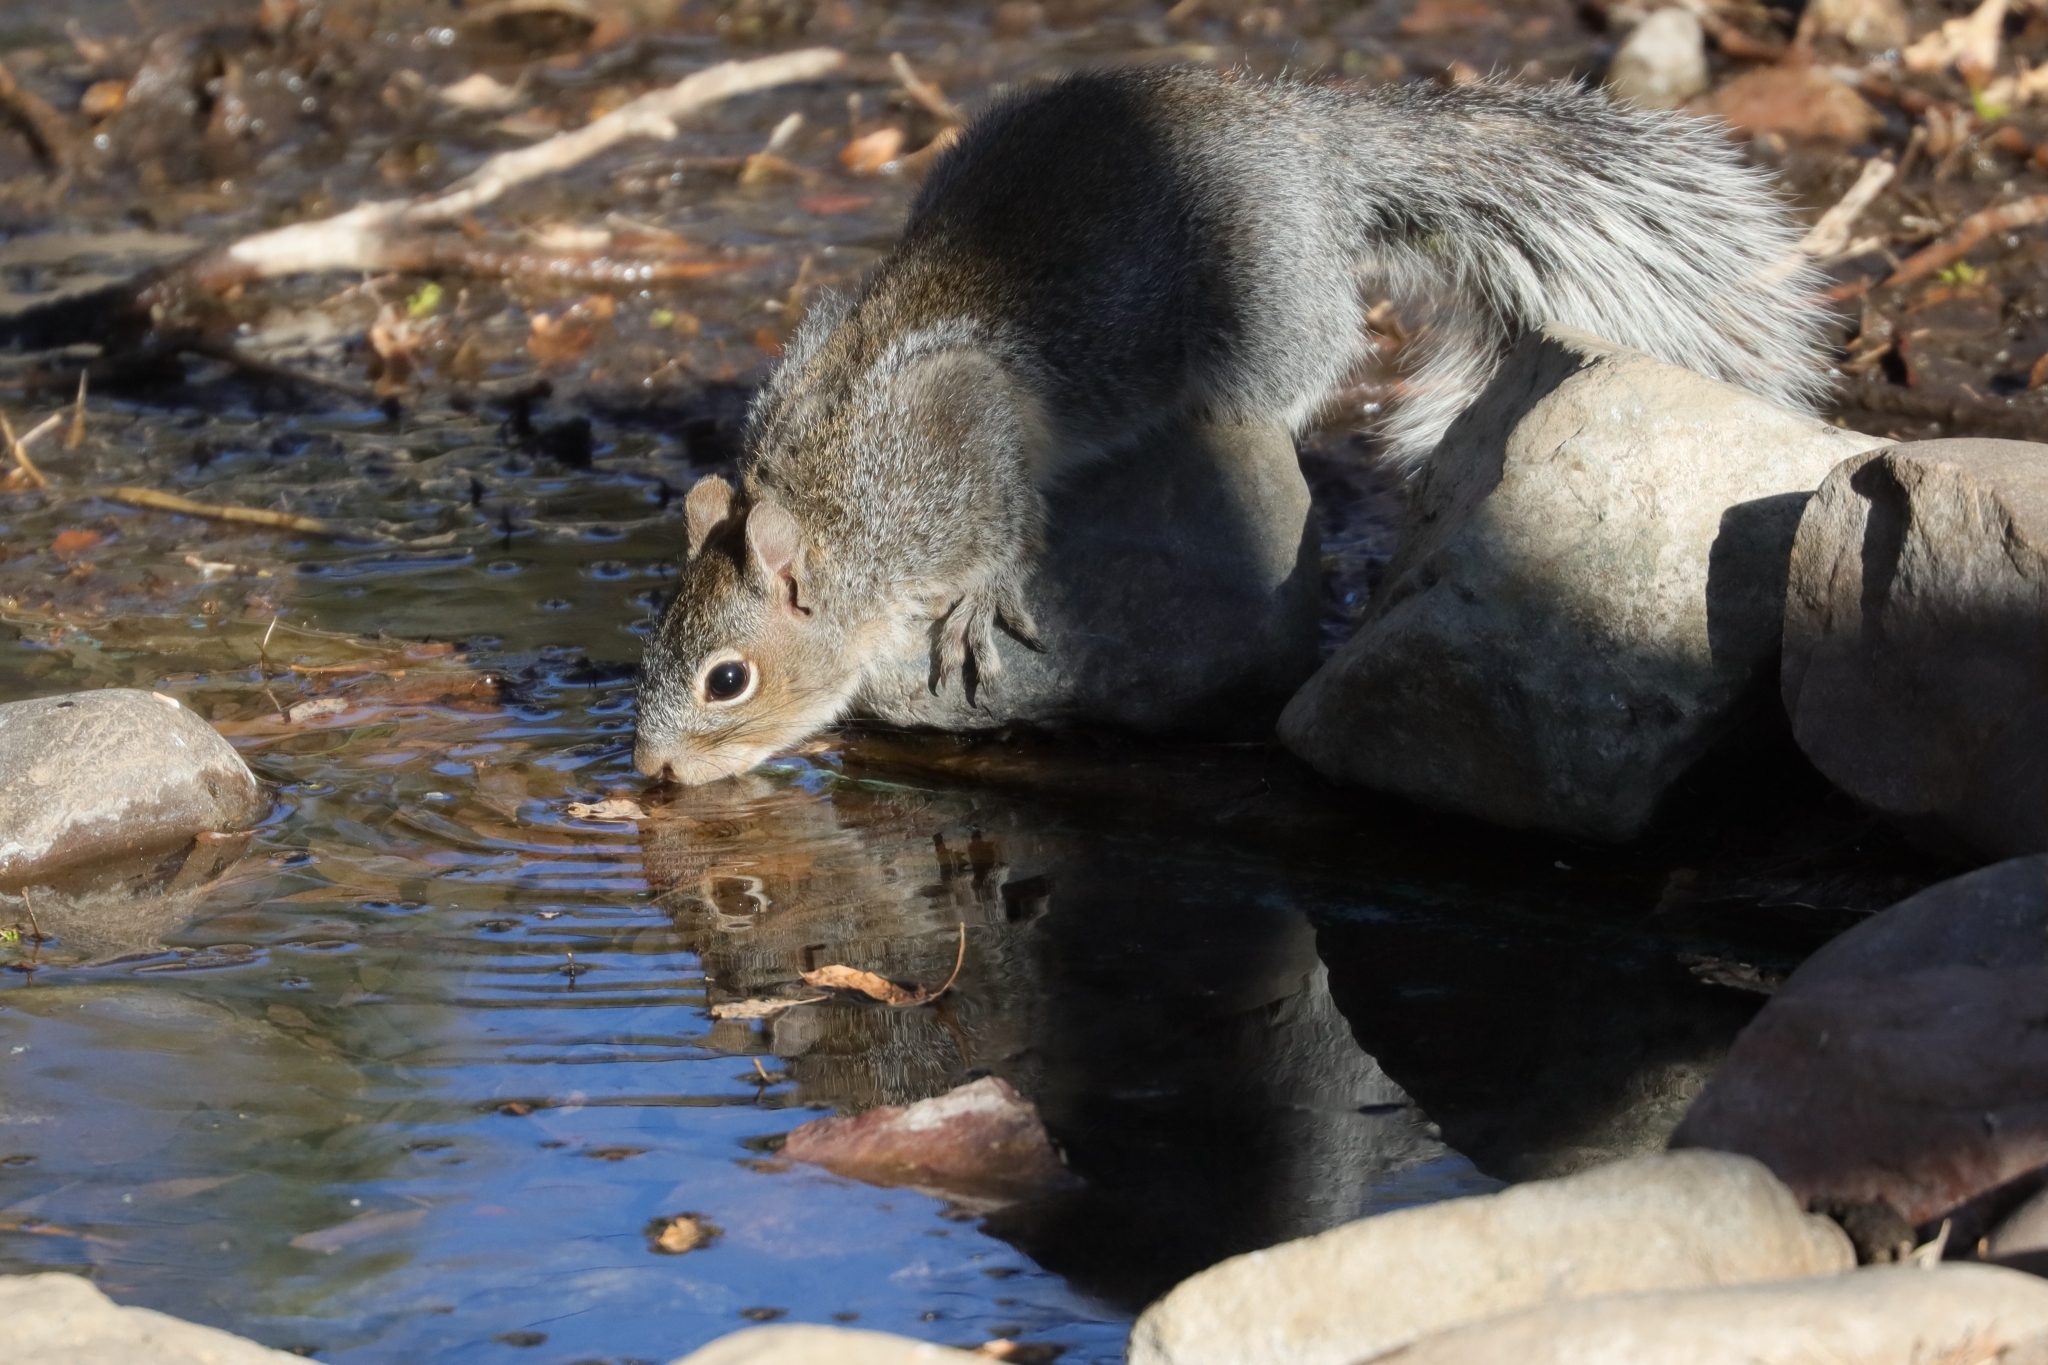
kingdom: Animalia
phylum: Chordata
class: Mammalia
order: Rodentia
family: Sciuridae
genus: Sciurus
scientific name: Sciurus arizonensis
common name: Arizona gray squirrel
